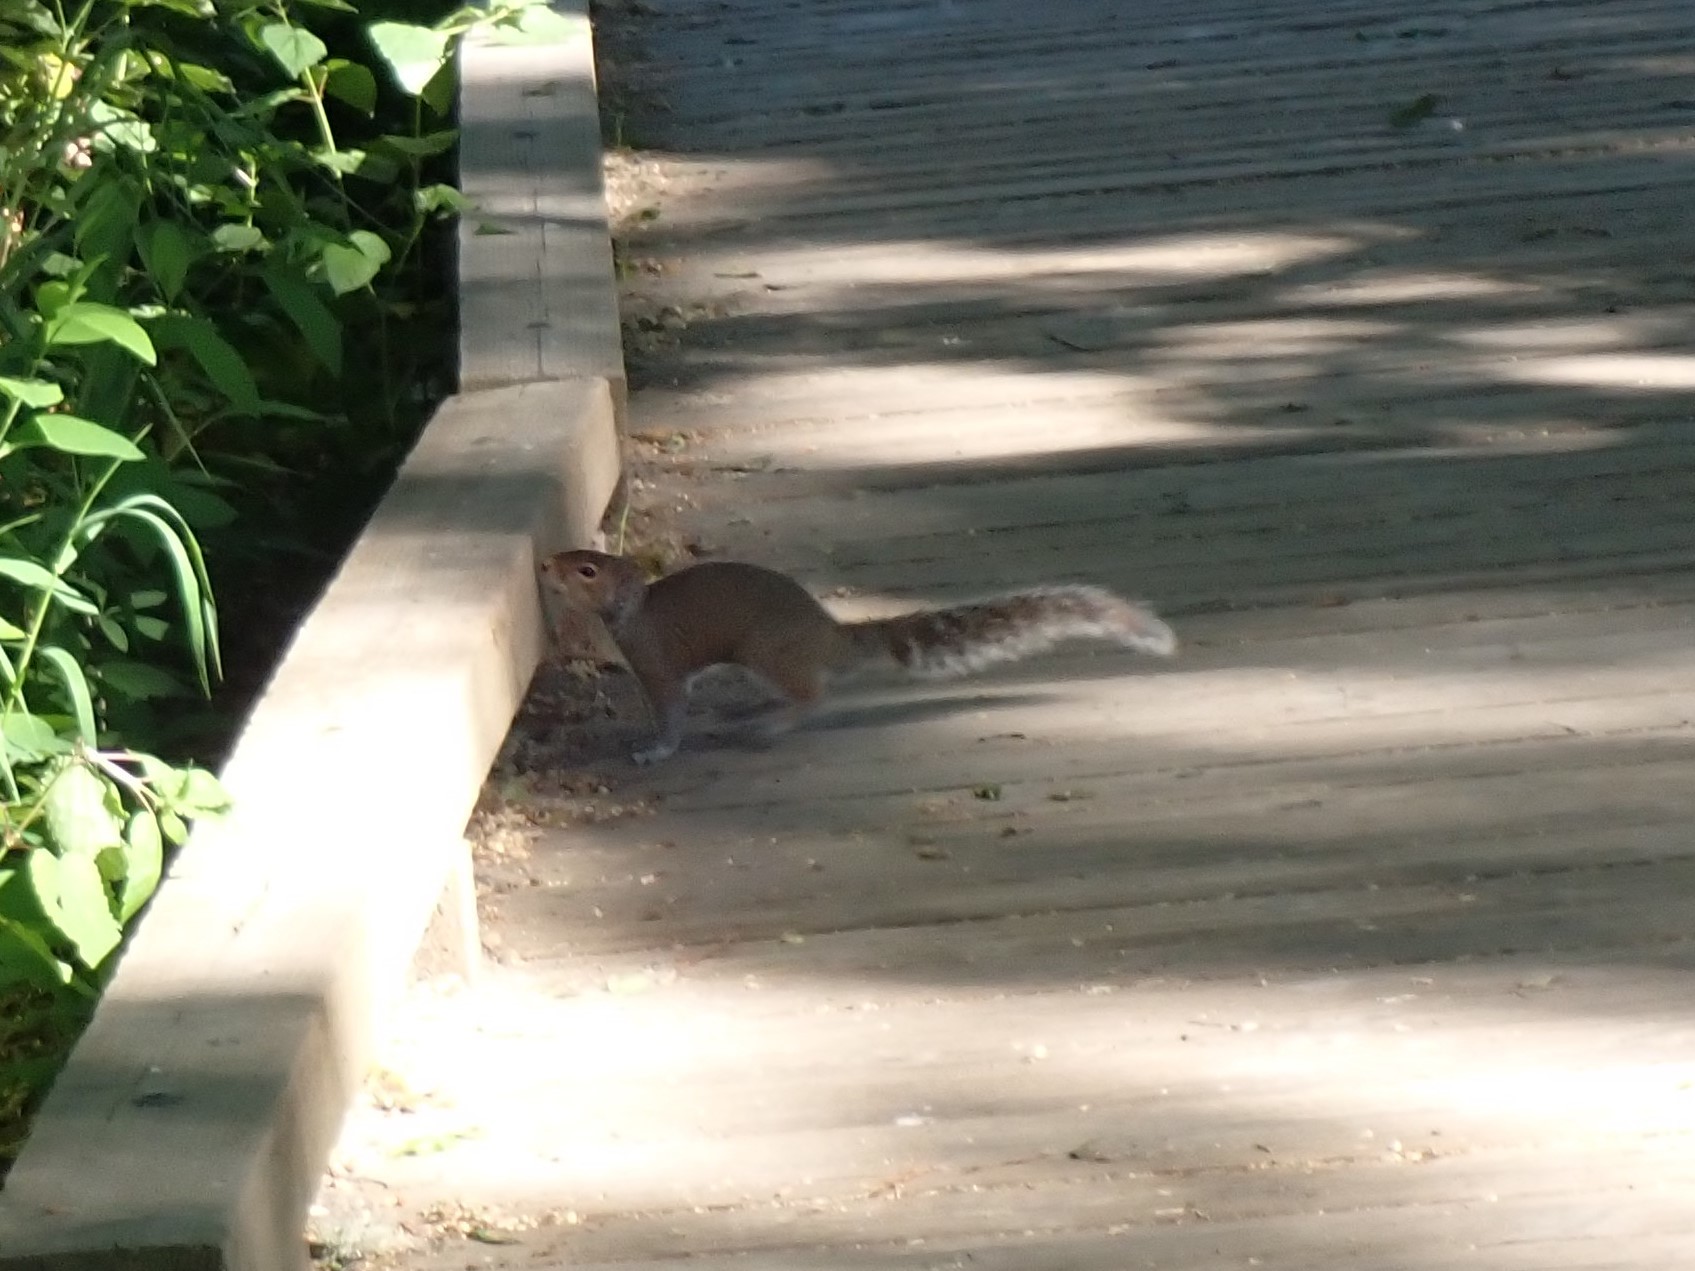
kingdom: Animalia
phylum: Chordata
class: Mammalia
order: Rodentia
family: Sciuridae
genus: Sciurus
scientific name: Sciurus carolinensis
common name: Eastern gray squirrel
